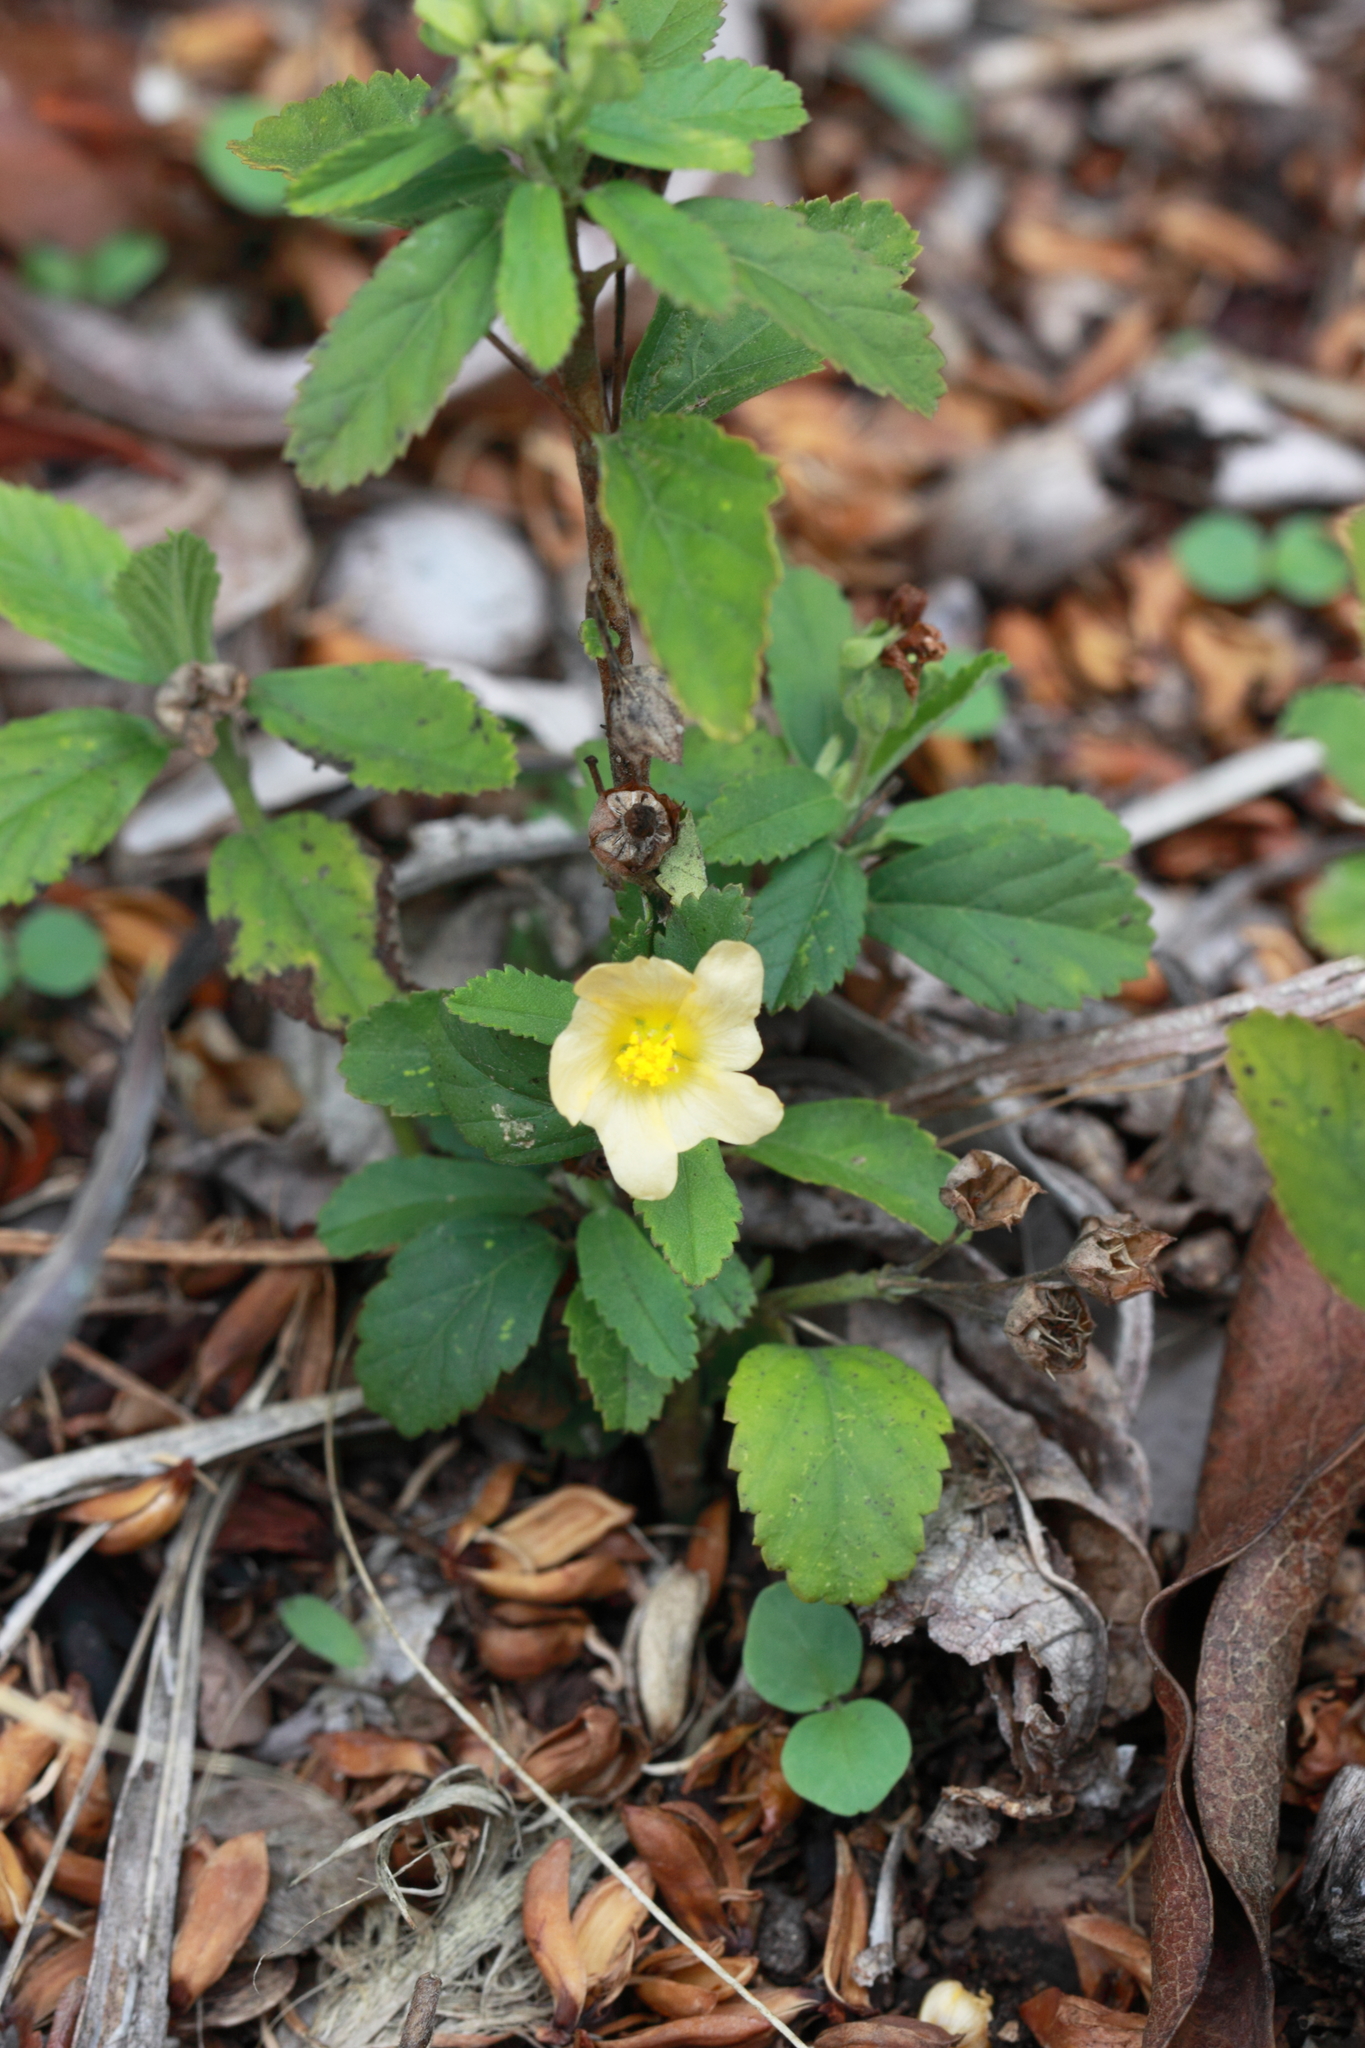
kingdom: Plantae
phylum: Tracheophyta
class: Magnoliopsida
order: Malvales
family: Malvaceae
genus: Sida
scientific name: Sida acuta
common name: Common wireweed
